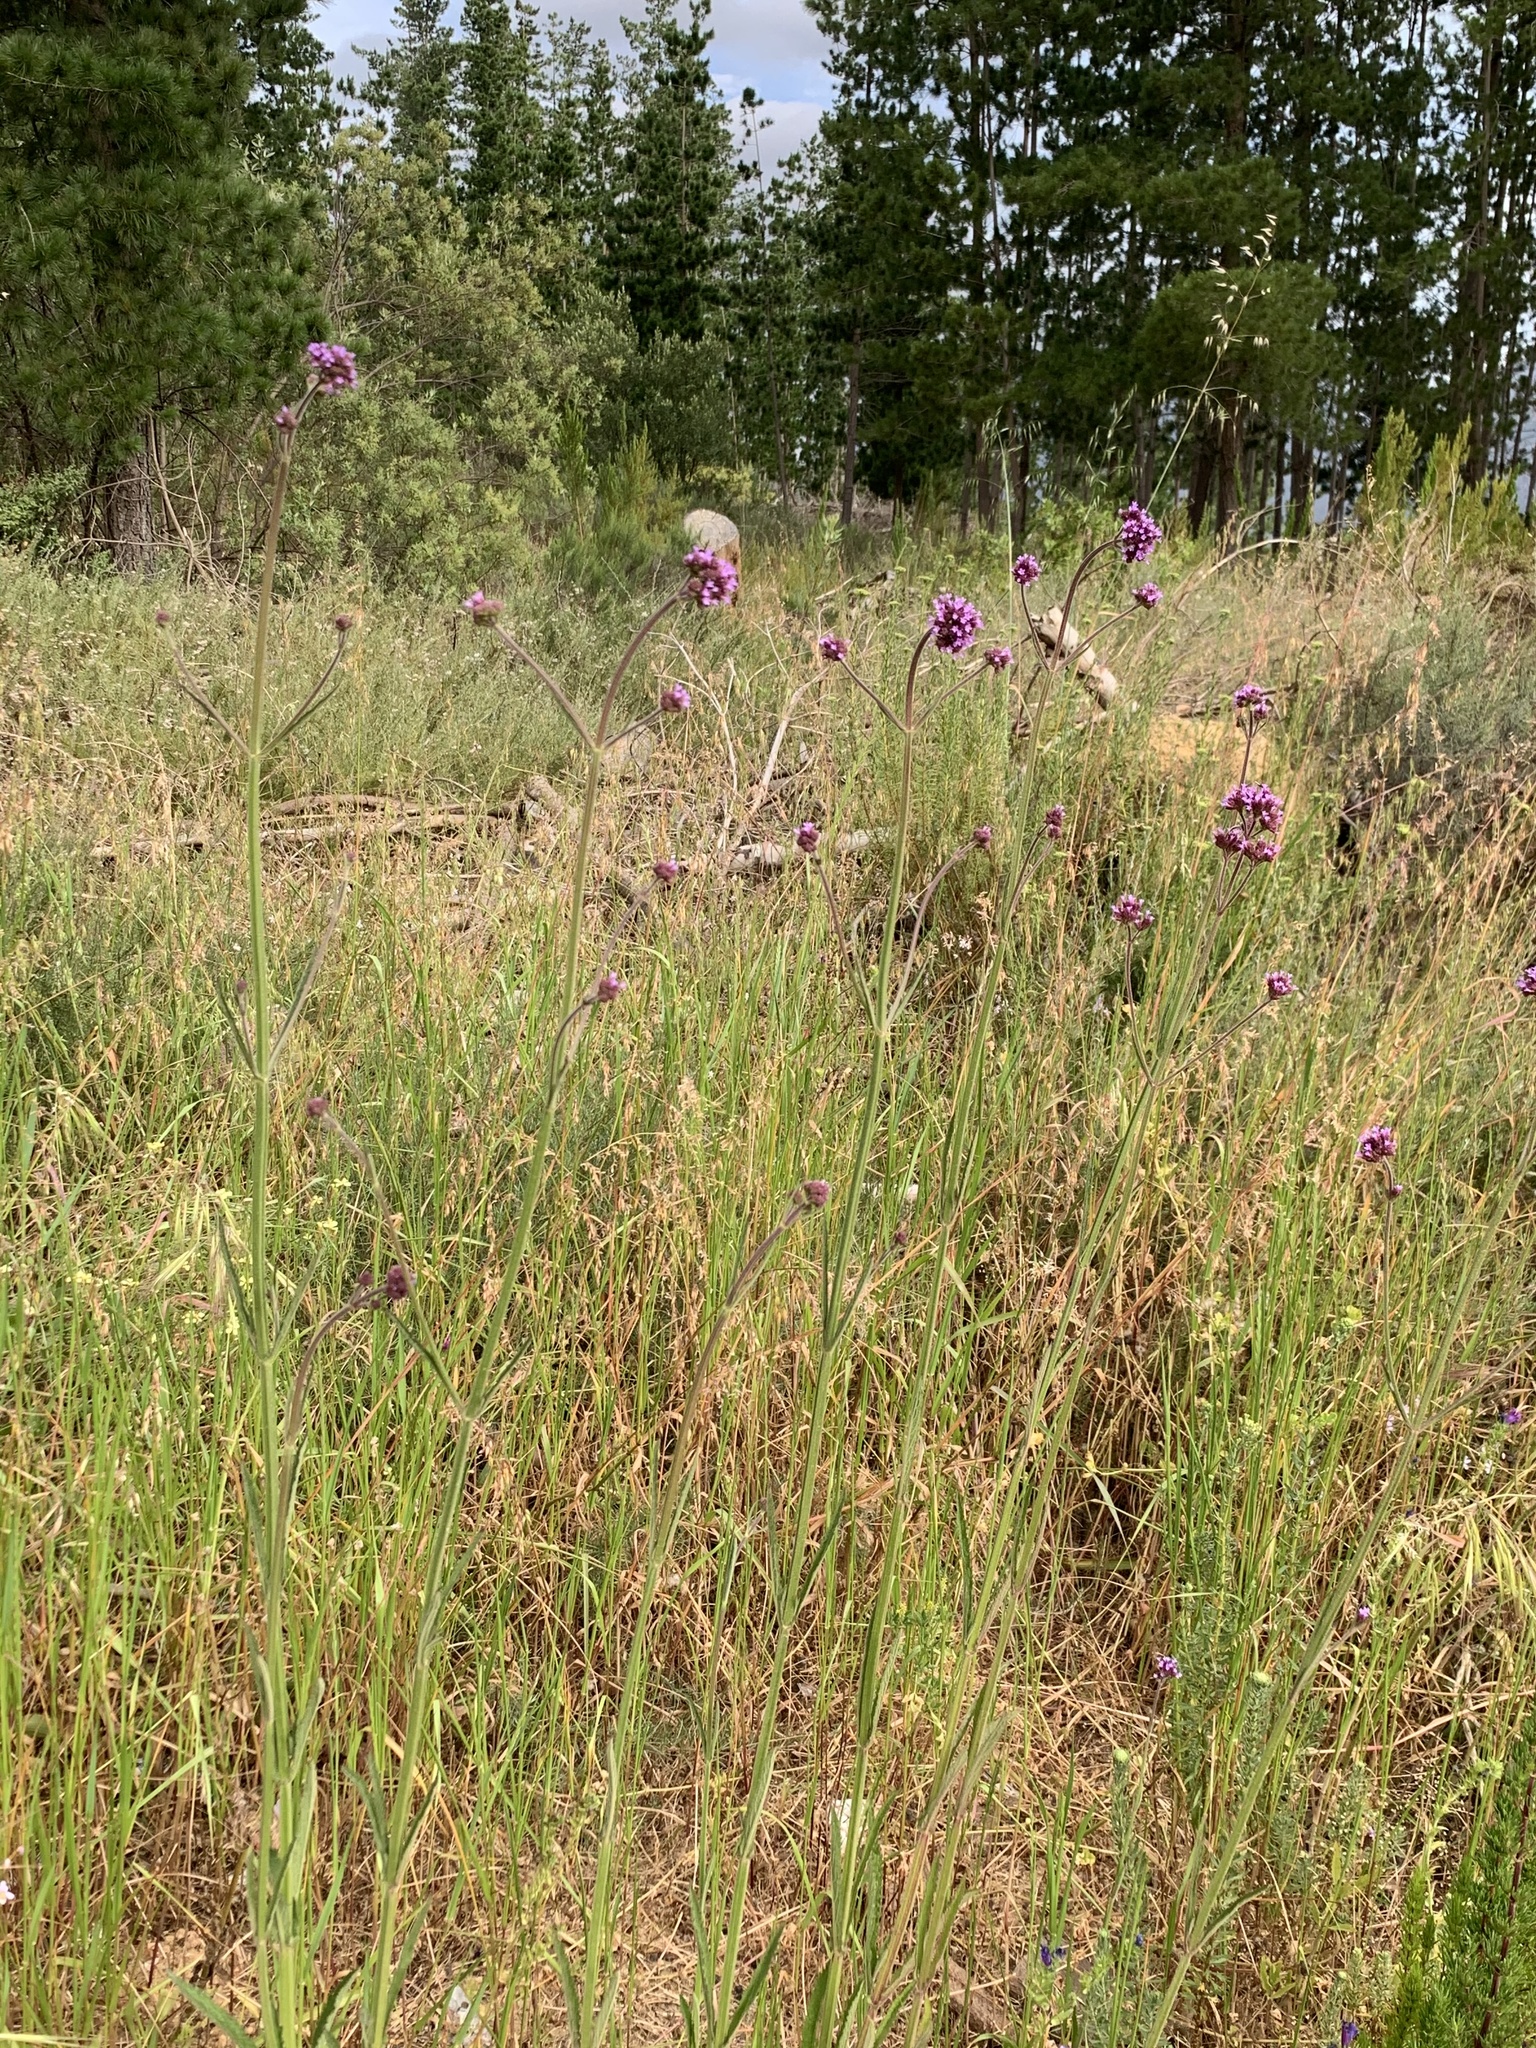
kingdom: Plantae
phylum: Tracheophyta
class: Magnoliopsida
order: Lamiales
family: Verbenaceae
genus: Verbena
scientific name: Verbena bonariensis
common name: Purpletop vervain
